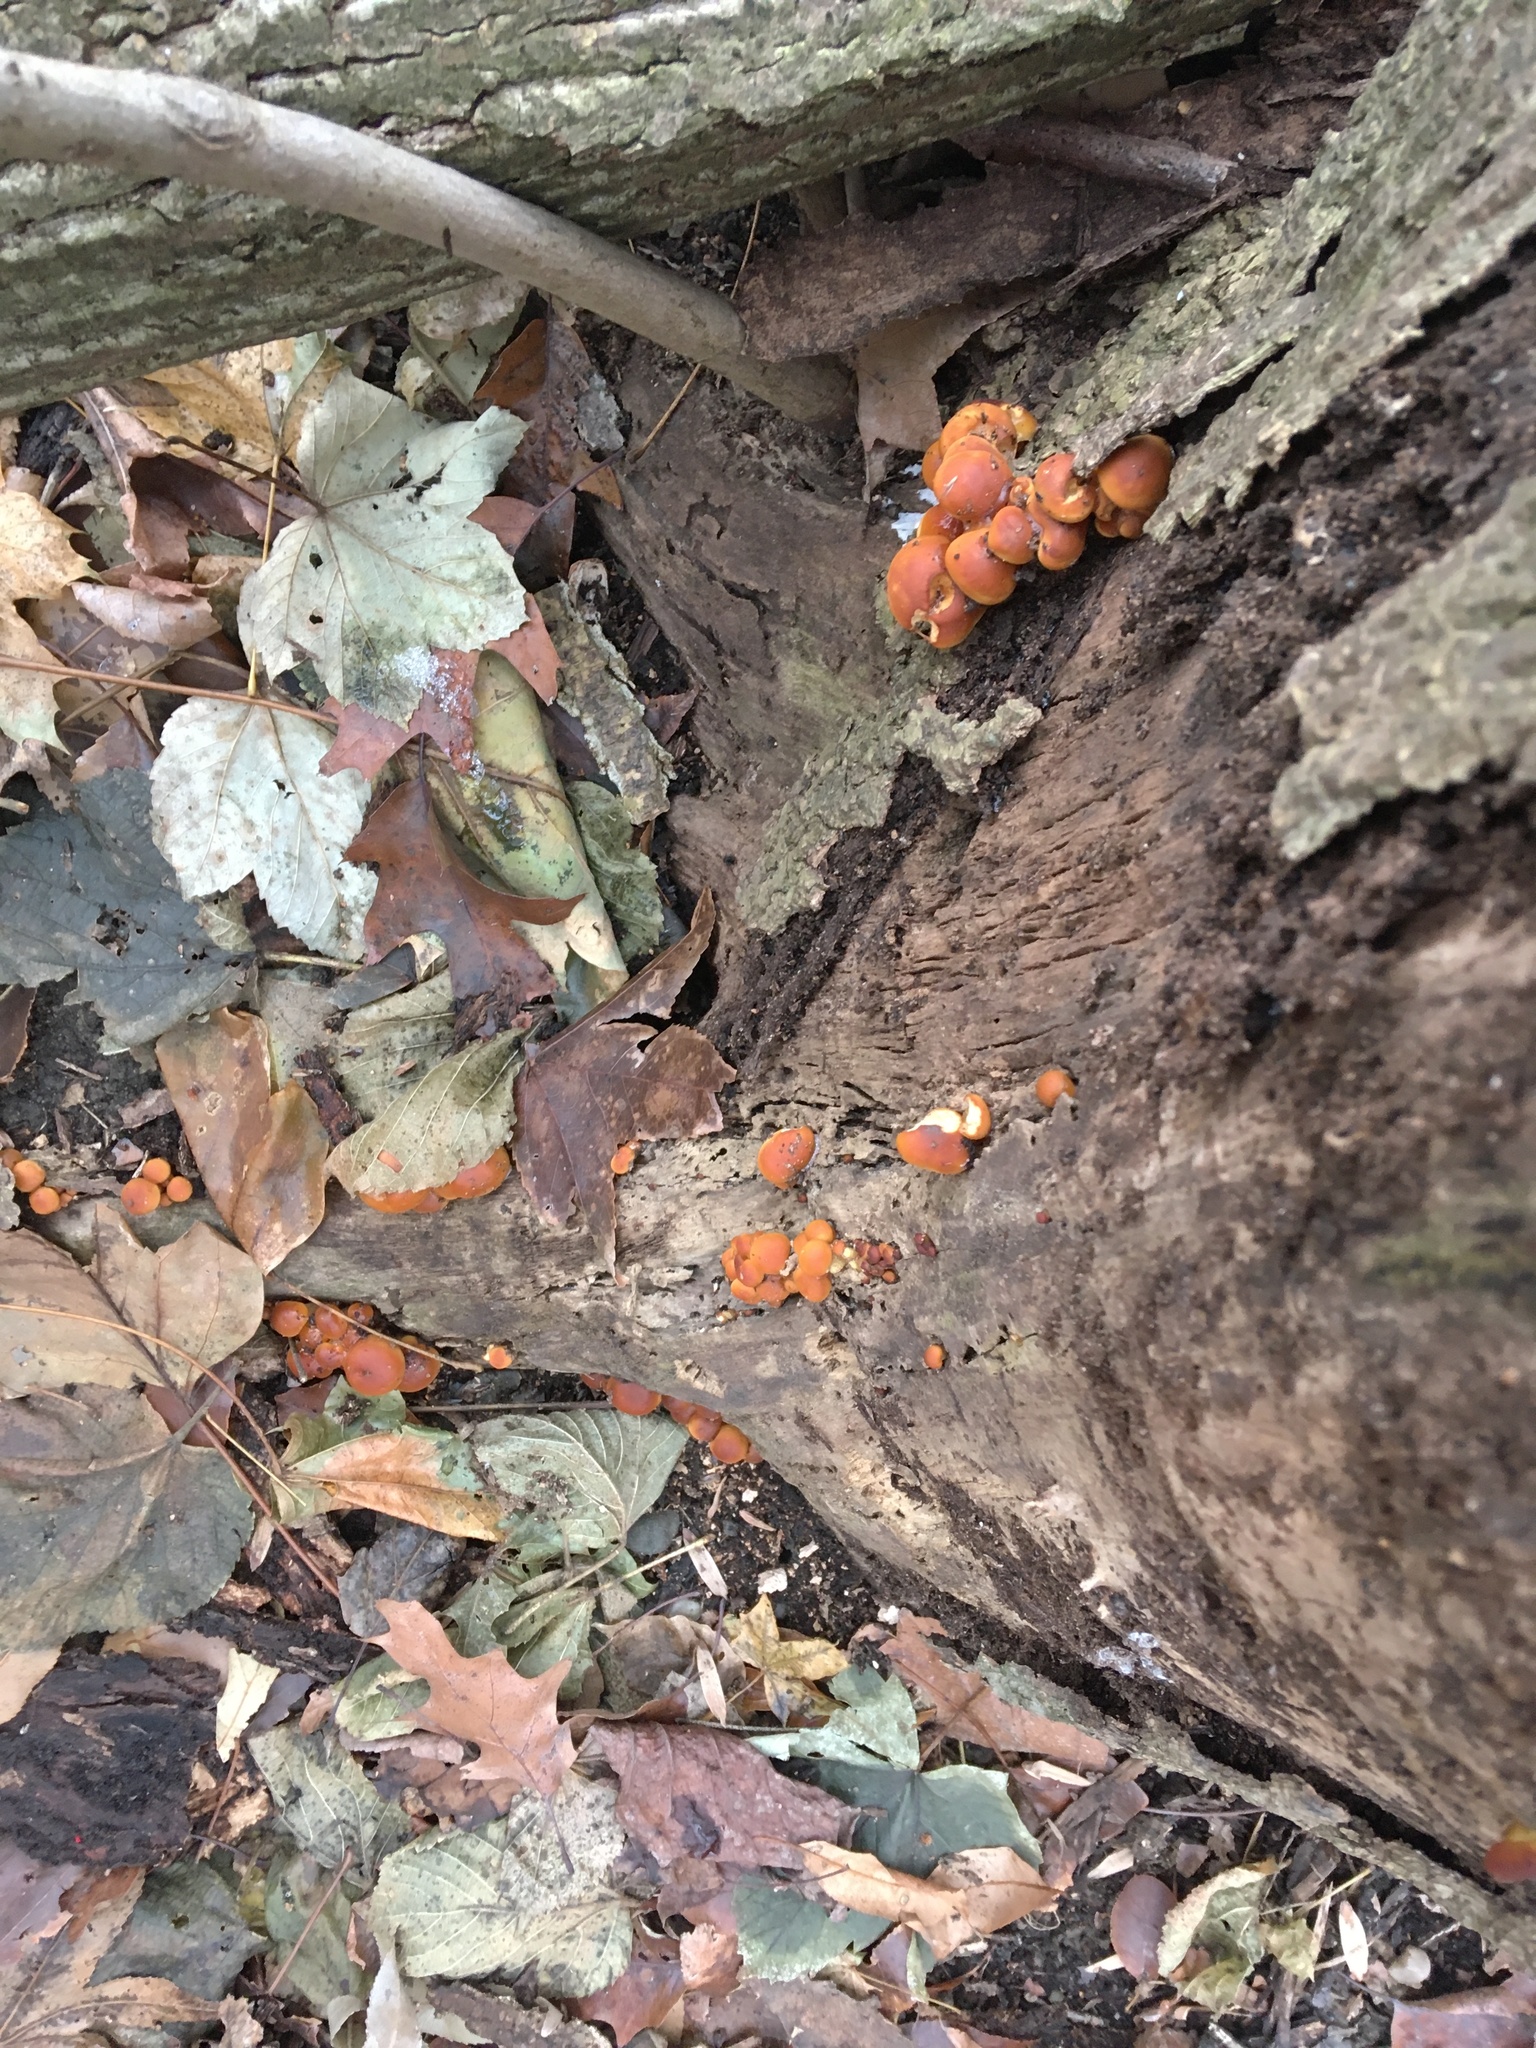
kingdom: Fungi
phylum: Basidiomycota
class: Agaricomycetes
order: Agaricales
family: Physalacriaceae
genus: Flammulina
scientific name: Flammulina velutipes
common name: Velvet shank
